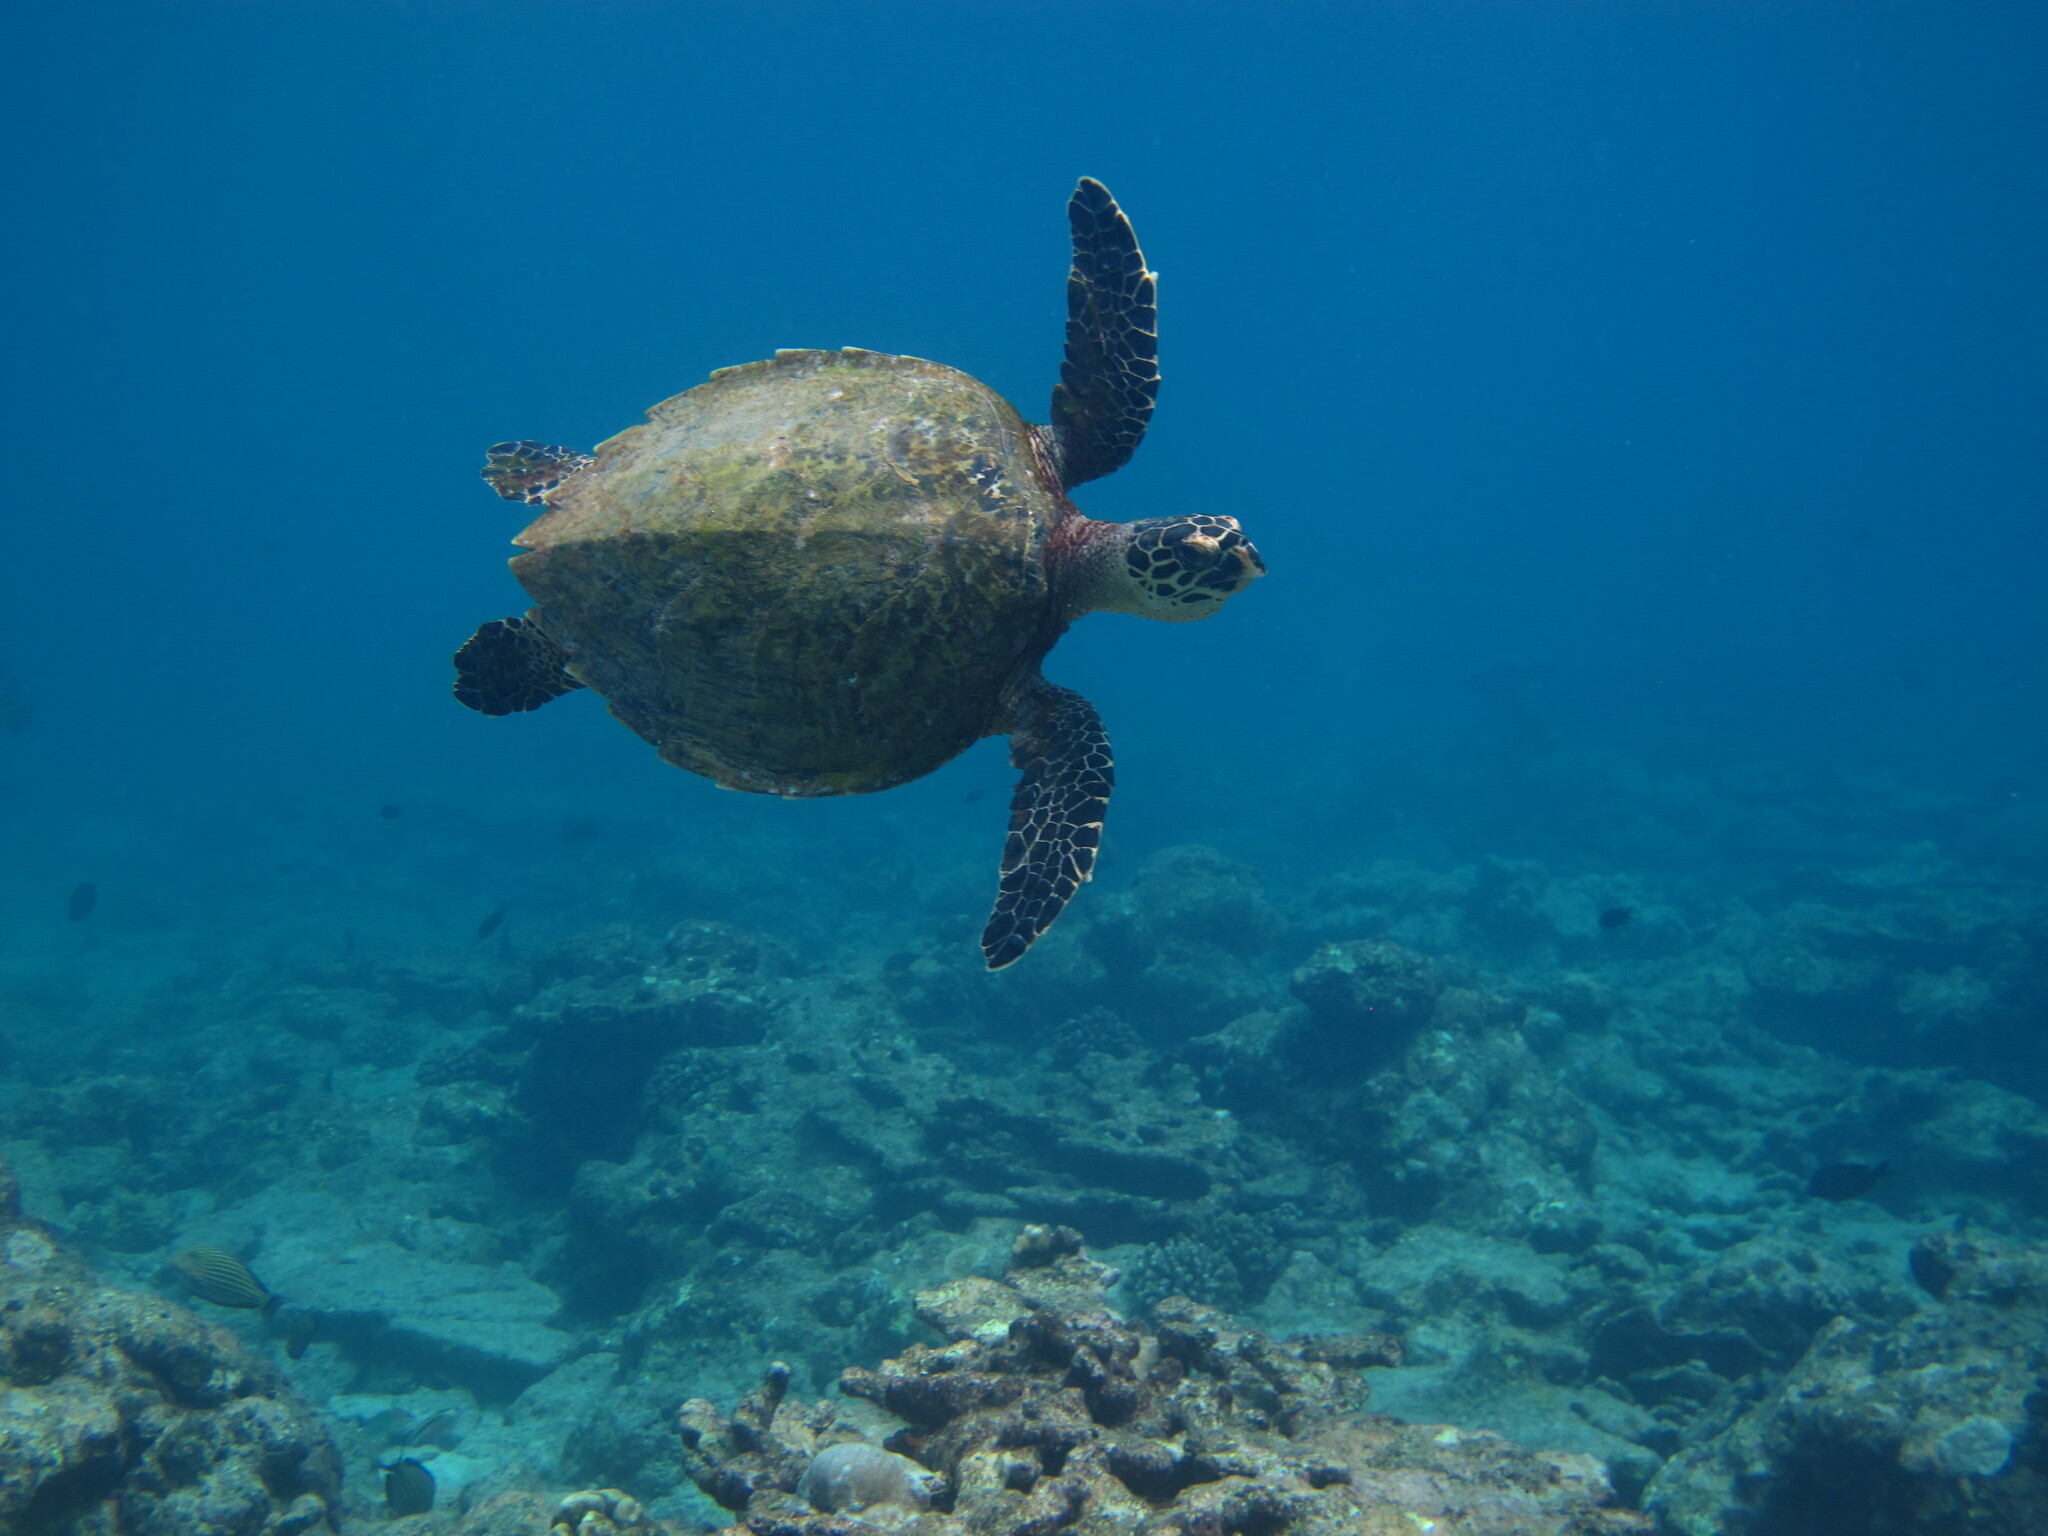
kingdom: Animalia
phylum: Chordata
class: Testudines
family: Cheloniidae
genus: Eretmochelys
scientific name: Eretmochelys imbricata
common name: Hawksbill turtle
